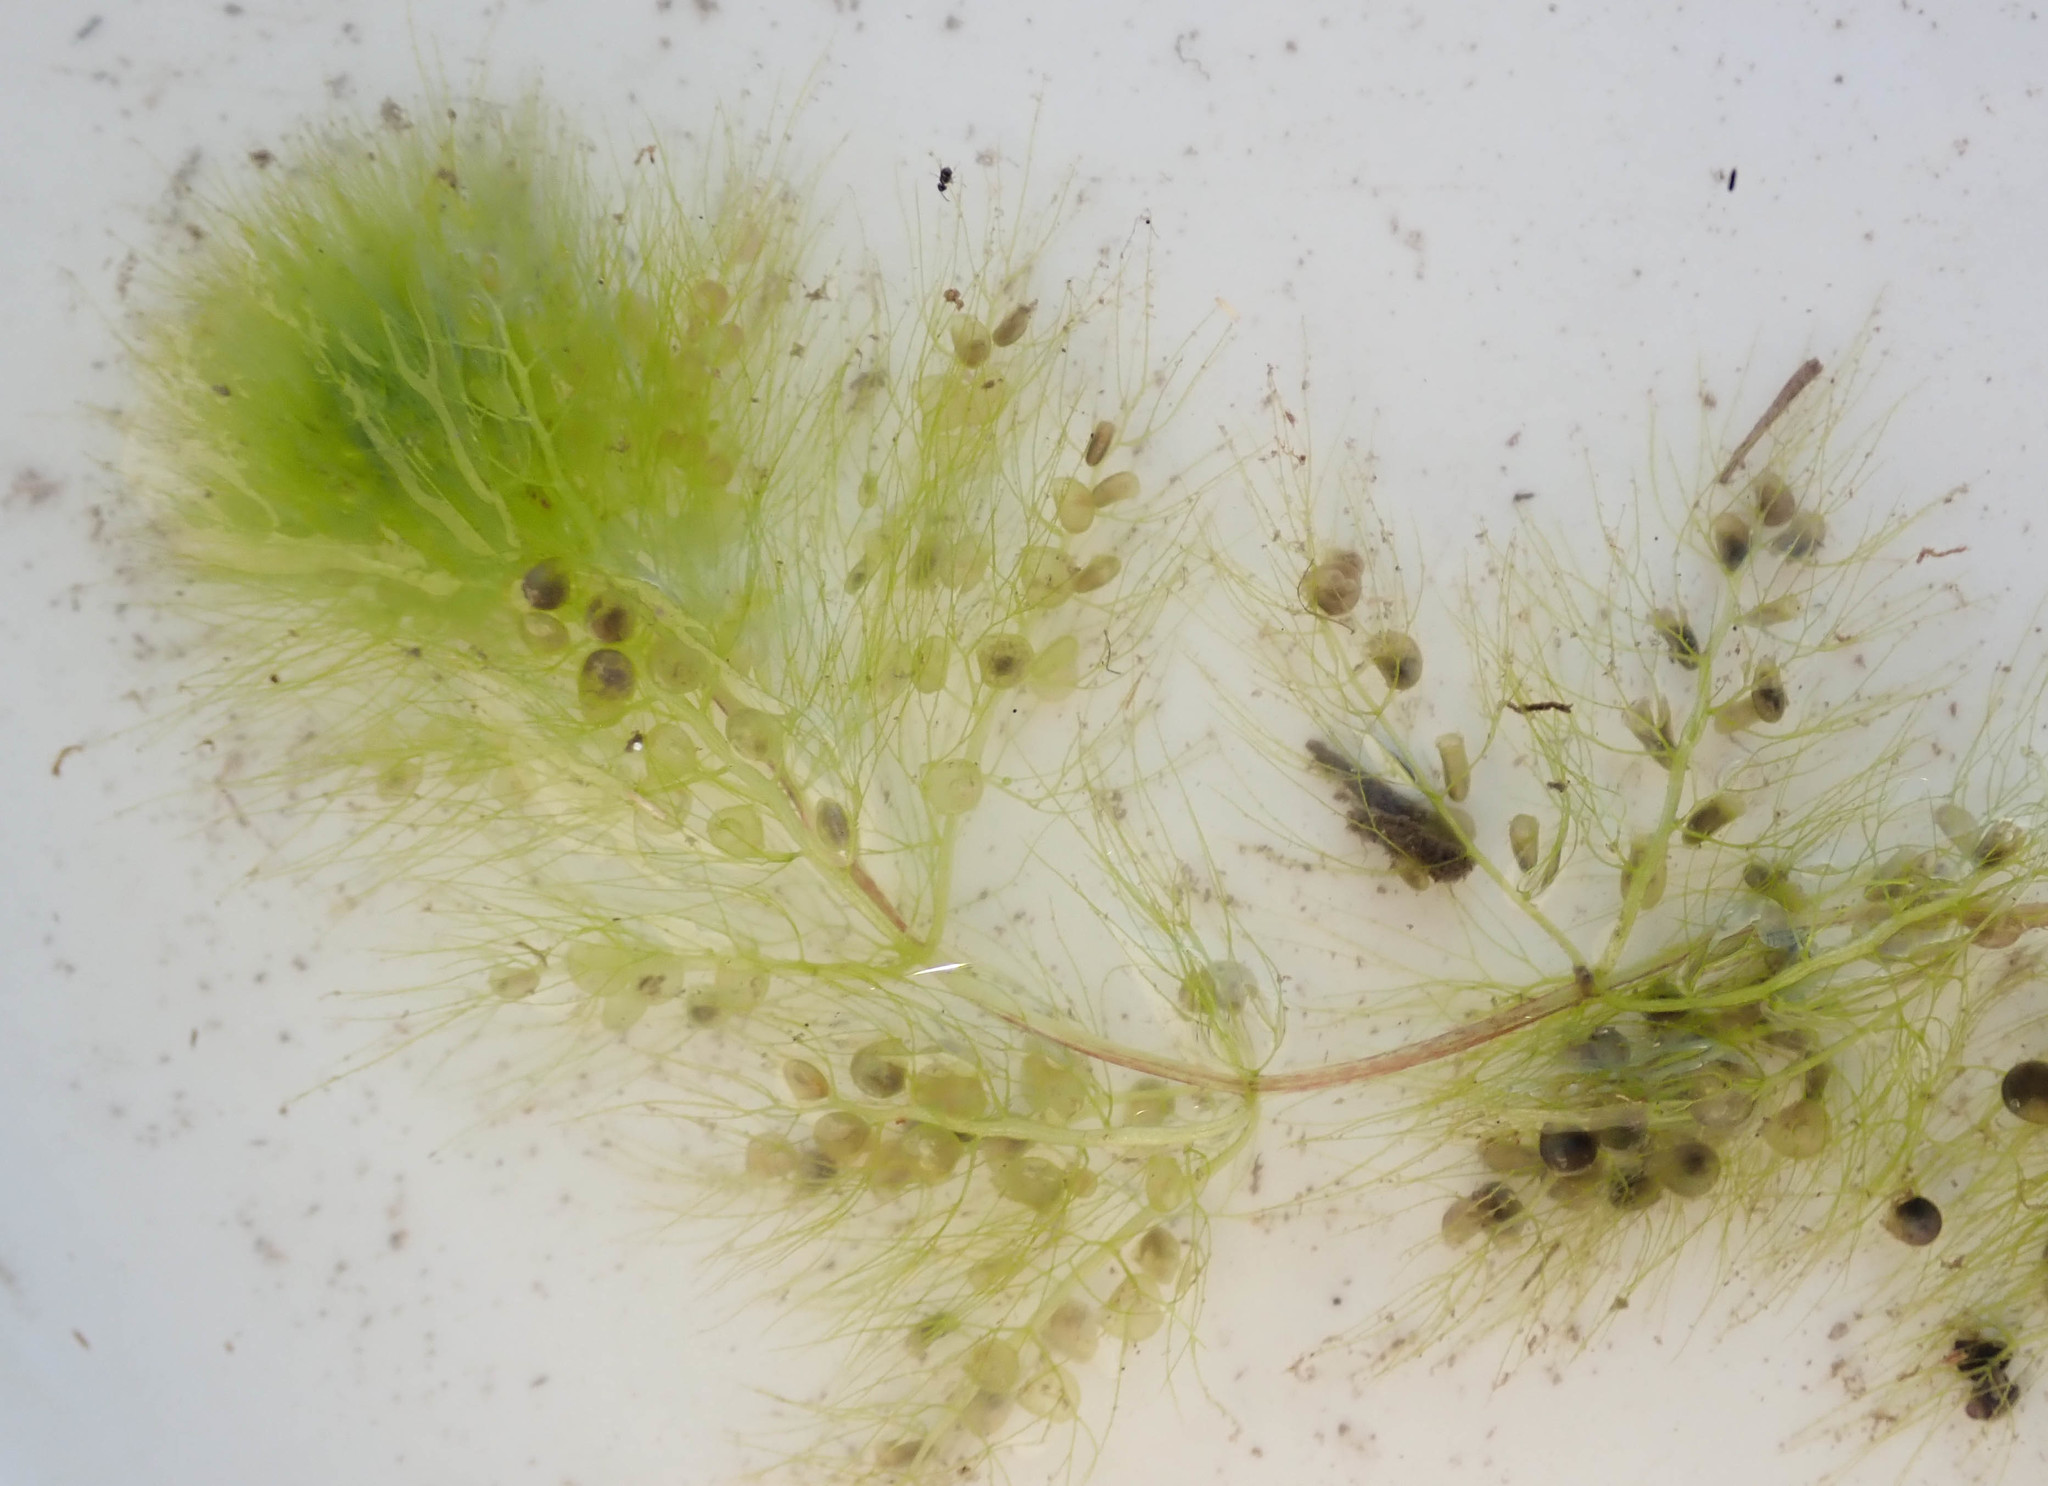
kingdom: Plantae
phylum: Tracheophyta
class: Magnoliopsida
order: Lamiales
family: Lentibulariaceae
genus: Utricularia
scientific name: Utricularia stellaris
